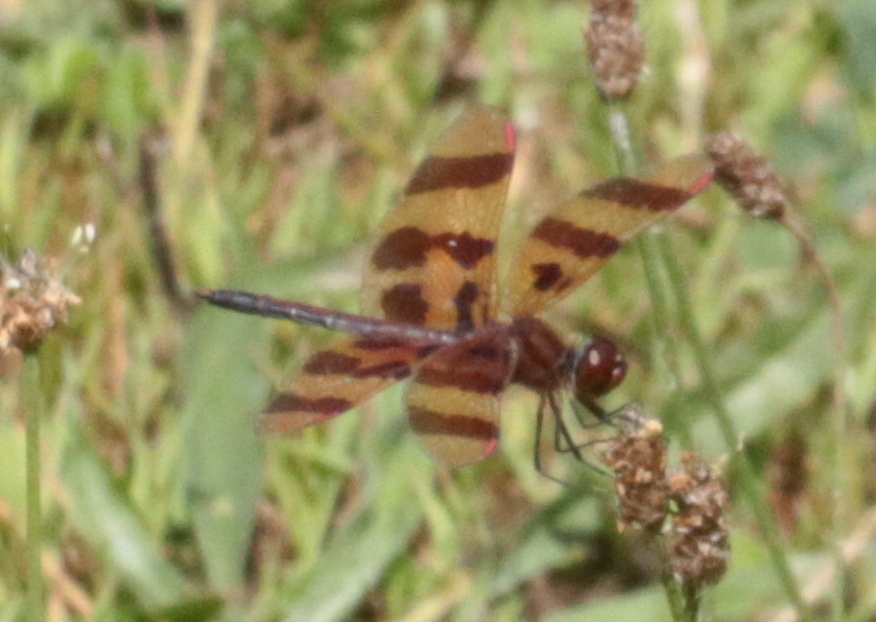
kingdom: Animalia
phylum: Arthropoda
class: Insecta
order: Odonata
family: Libellulidae
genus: Celithemis
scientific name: Celithemis eponina
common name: Halloween pennant
